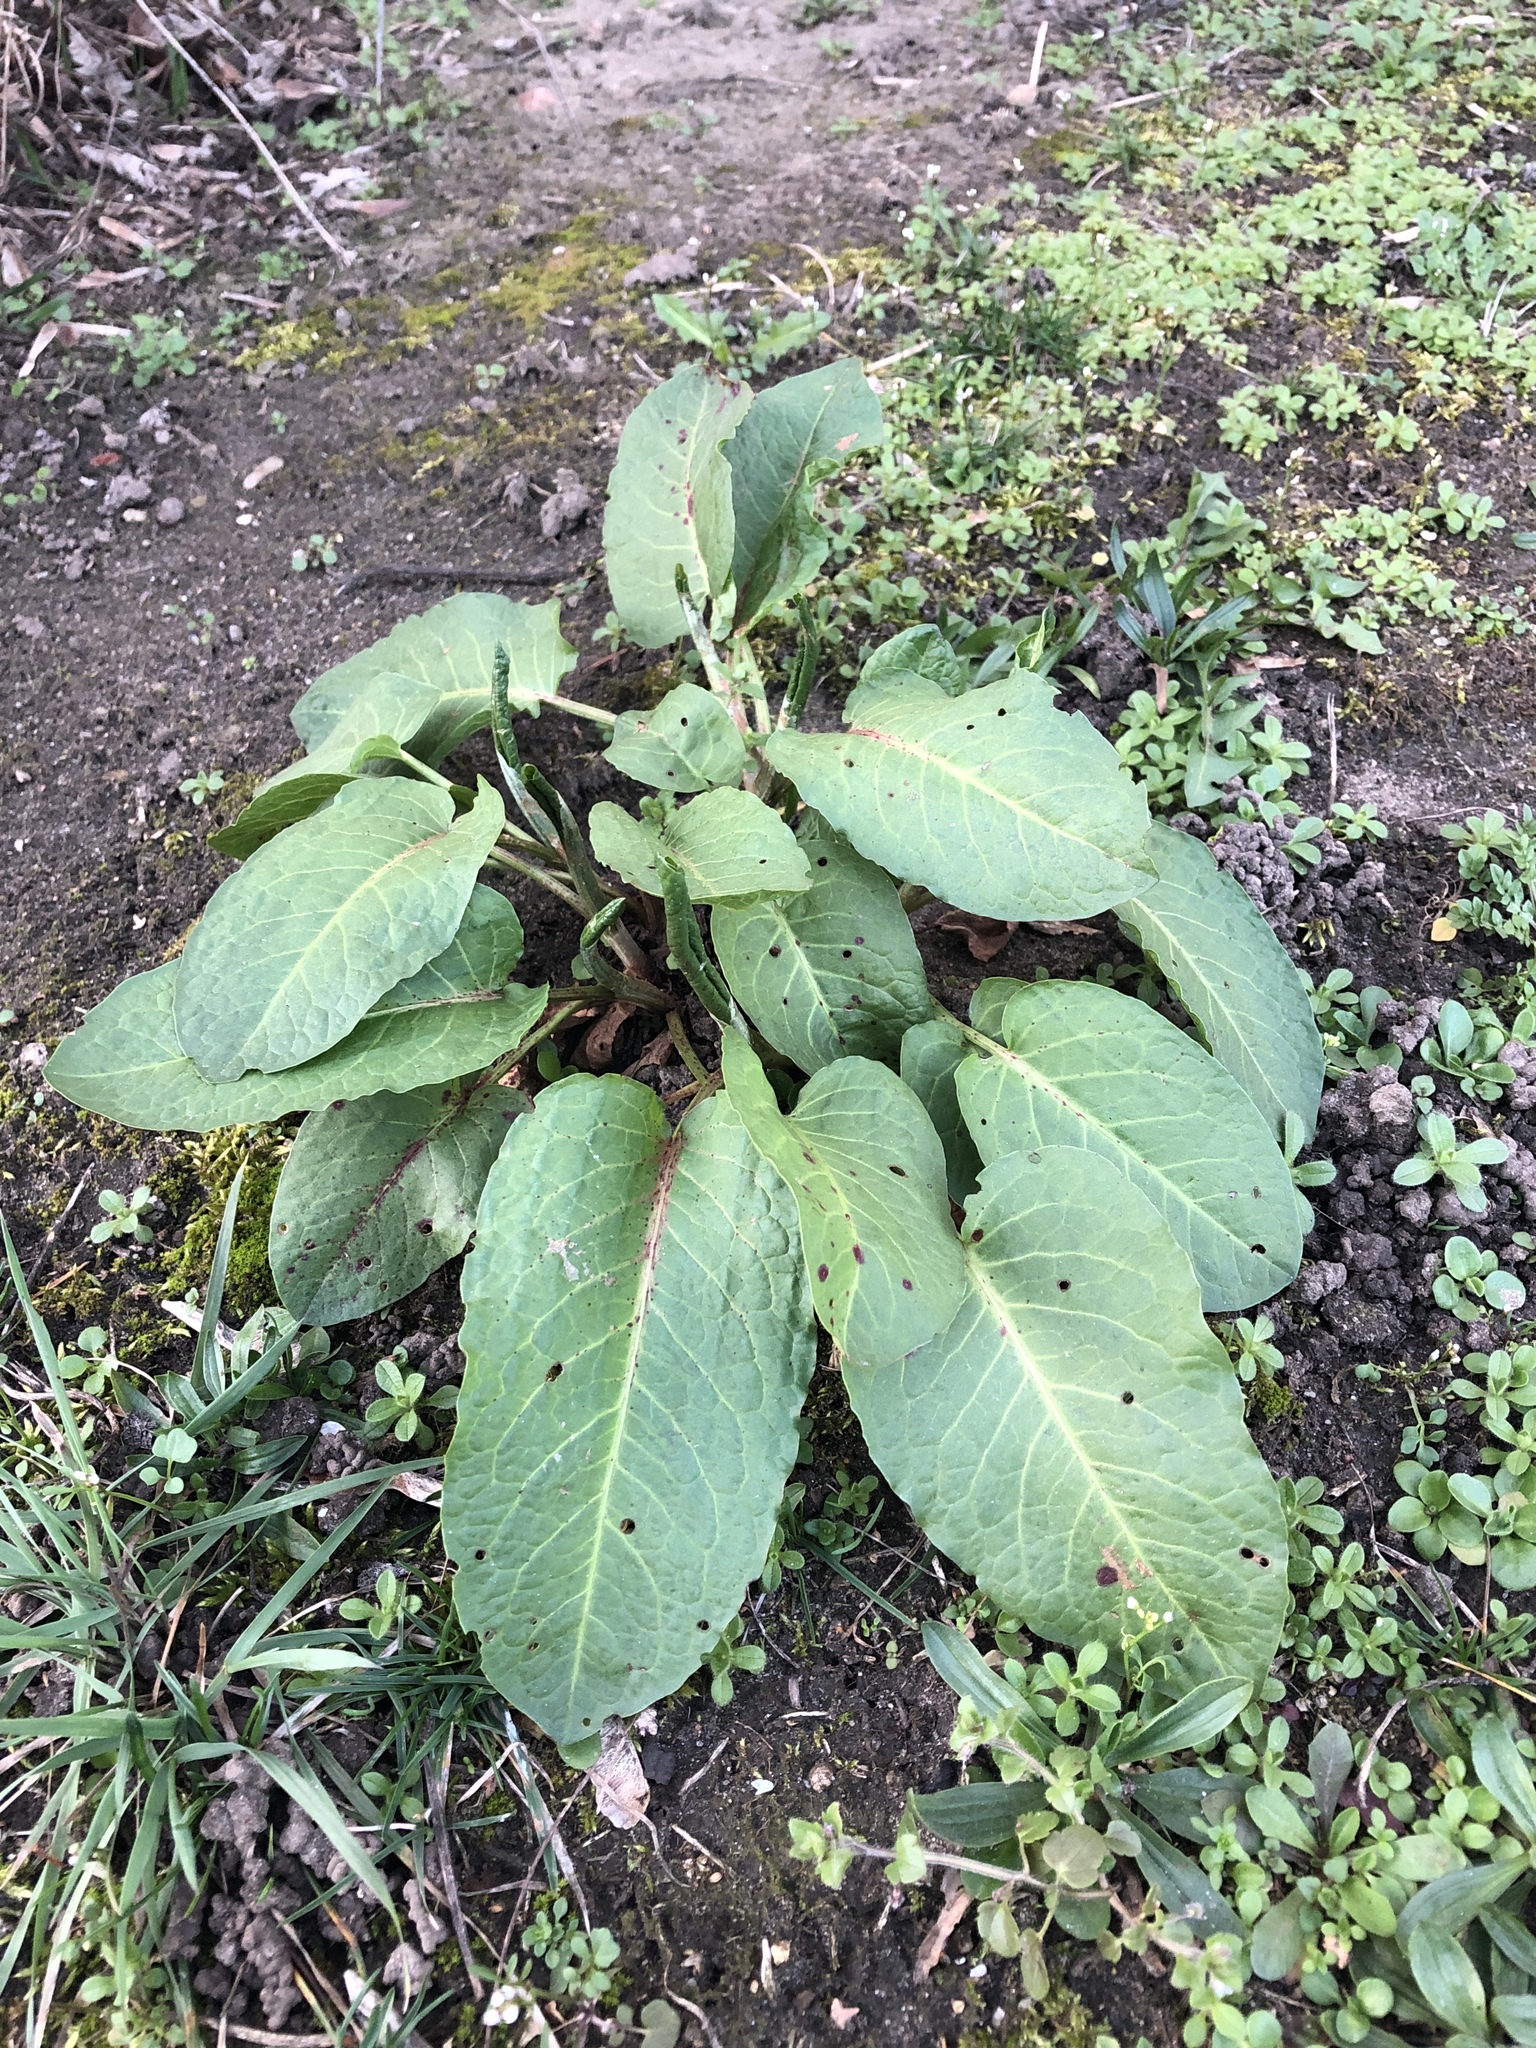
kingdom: Plantae
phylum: Tracheophyta
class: Magnoliopsida
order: Caryophyllales
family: Polygonaceae
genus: Rumex
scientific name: Rumex obtusifolius
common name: Bitter dock
